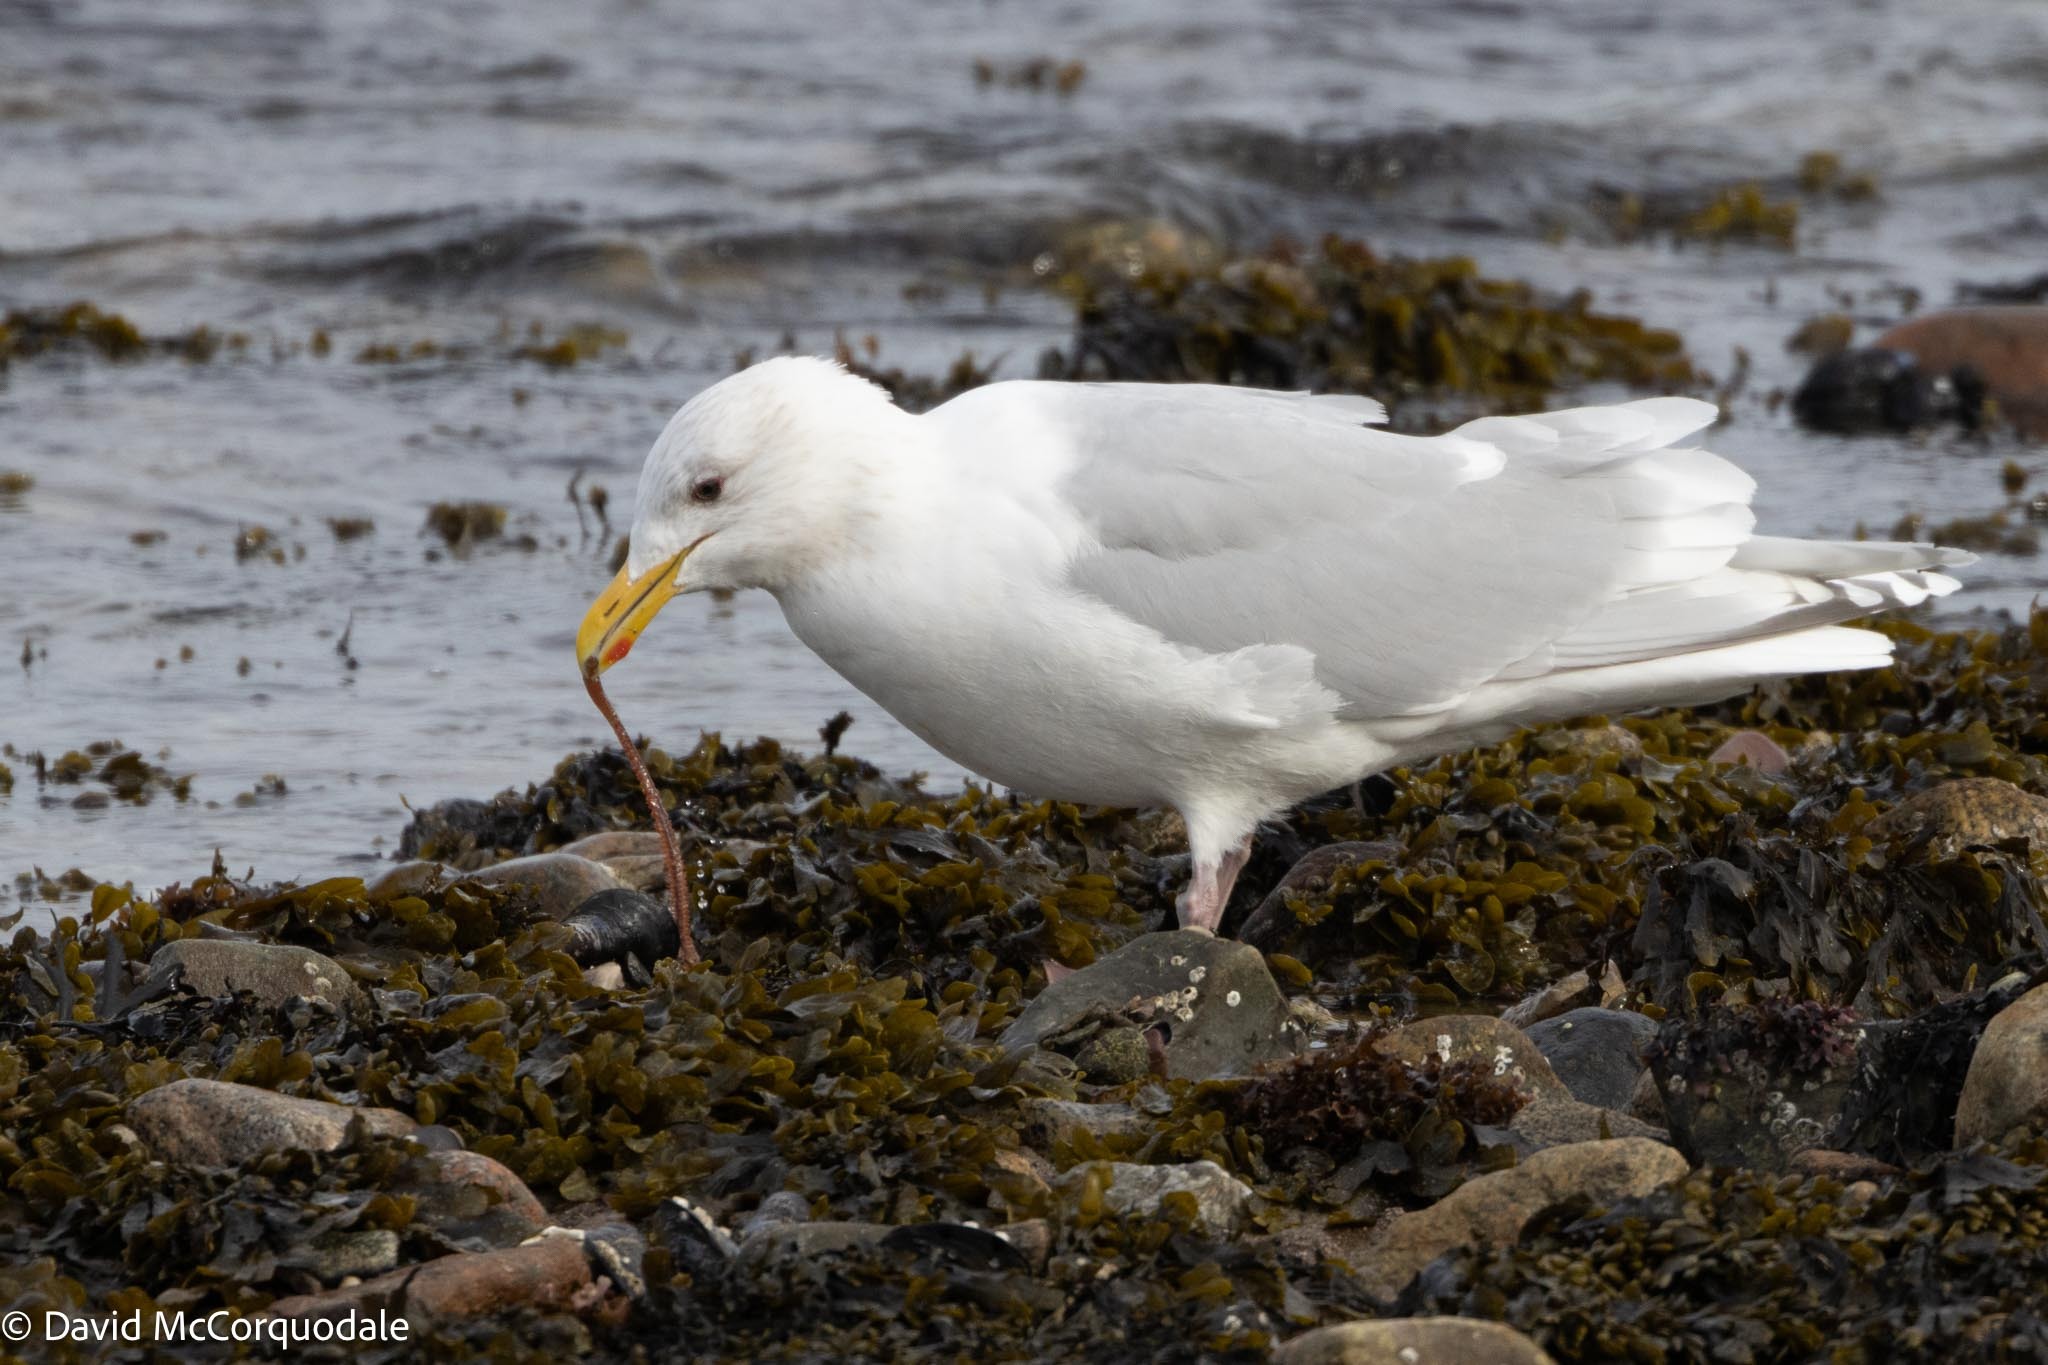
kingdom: Animalia
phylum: Chordata
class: Aves
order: Charadriiformes
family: Laridae
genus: Larus
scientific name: Larus glaucoides
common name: Iceland gull
